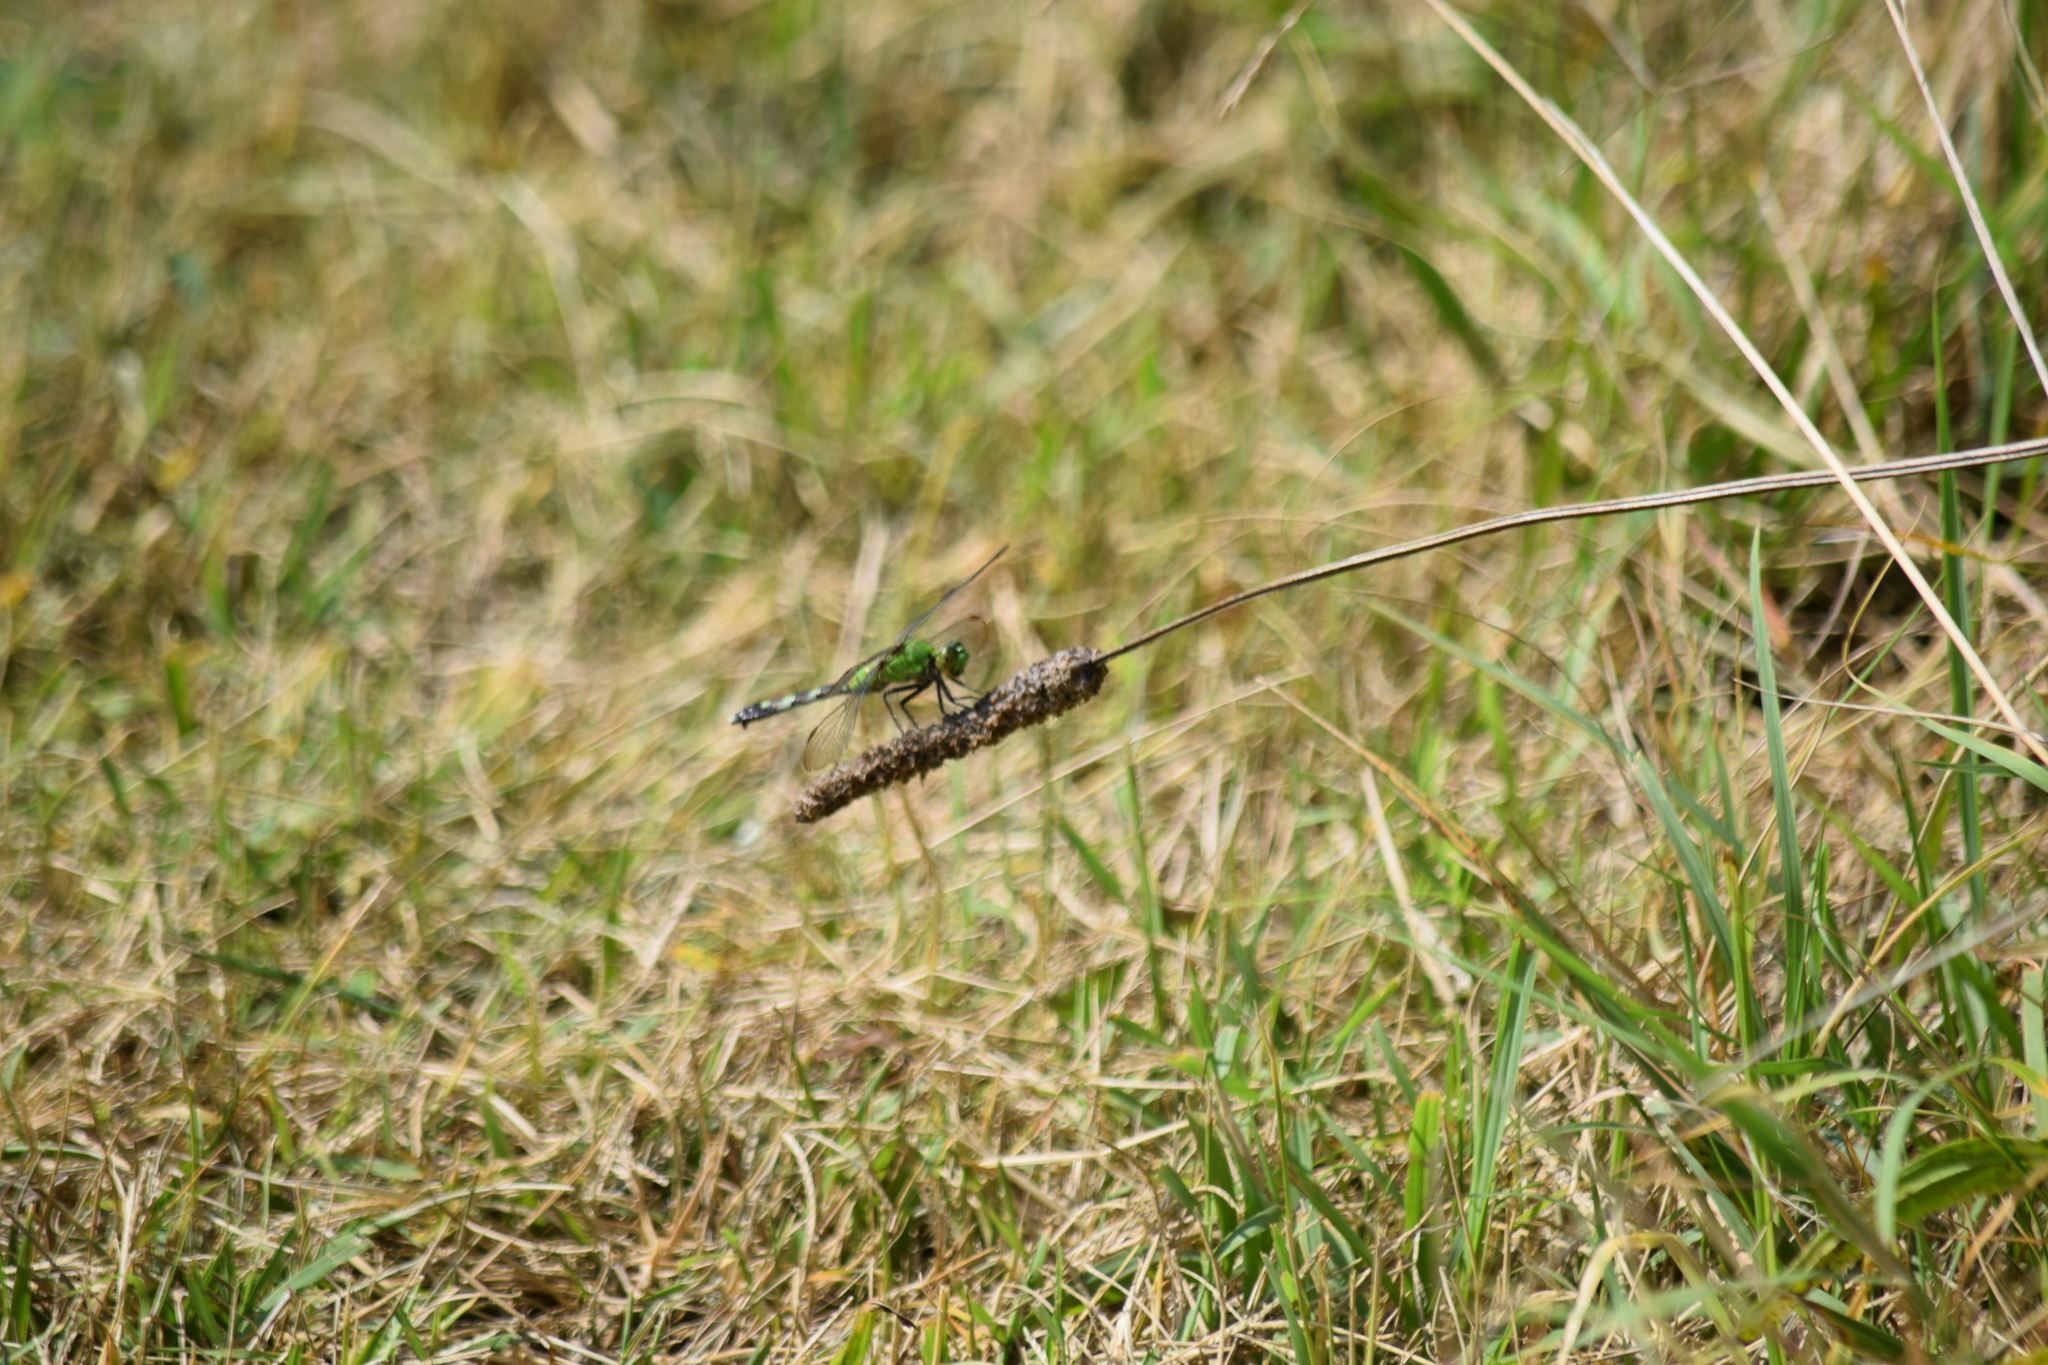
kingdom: Animalia
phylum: Arthropoda
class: Insecta
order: Odonata
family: Libellulidae
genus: Erythemis
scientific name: Erythemis simplicicollis
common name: Eastern pondhawk
